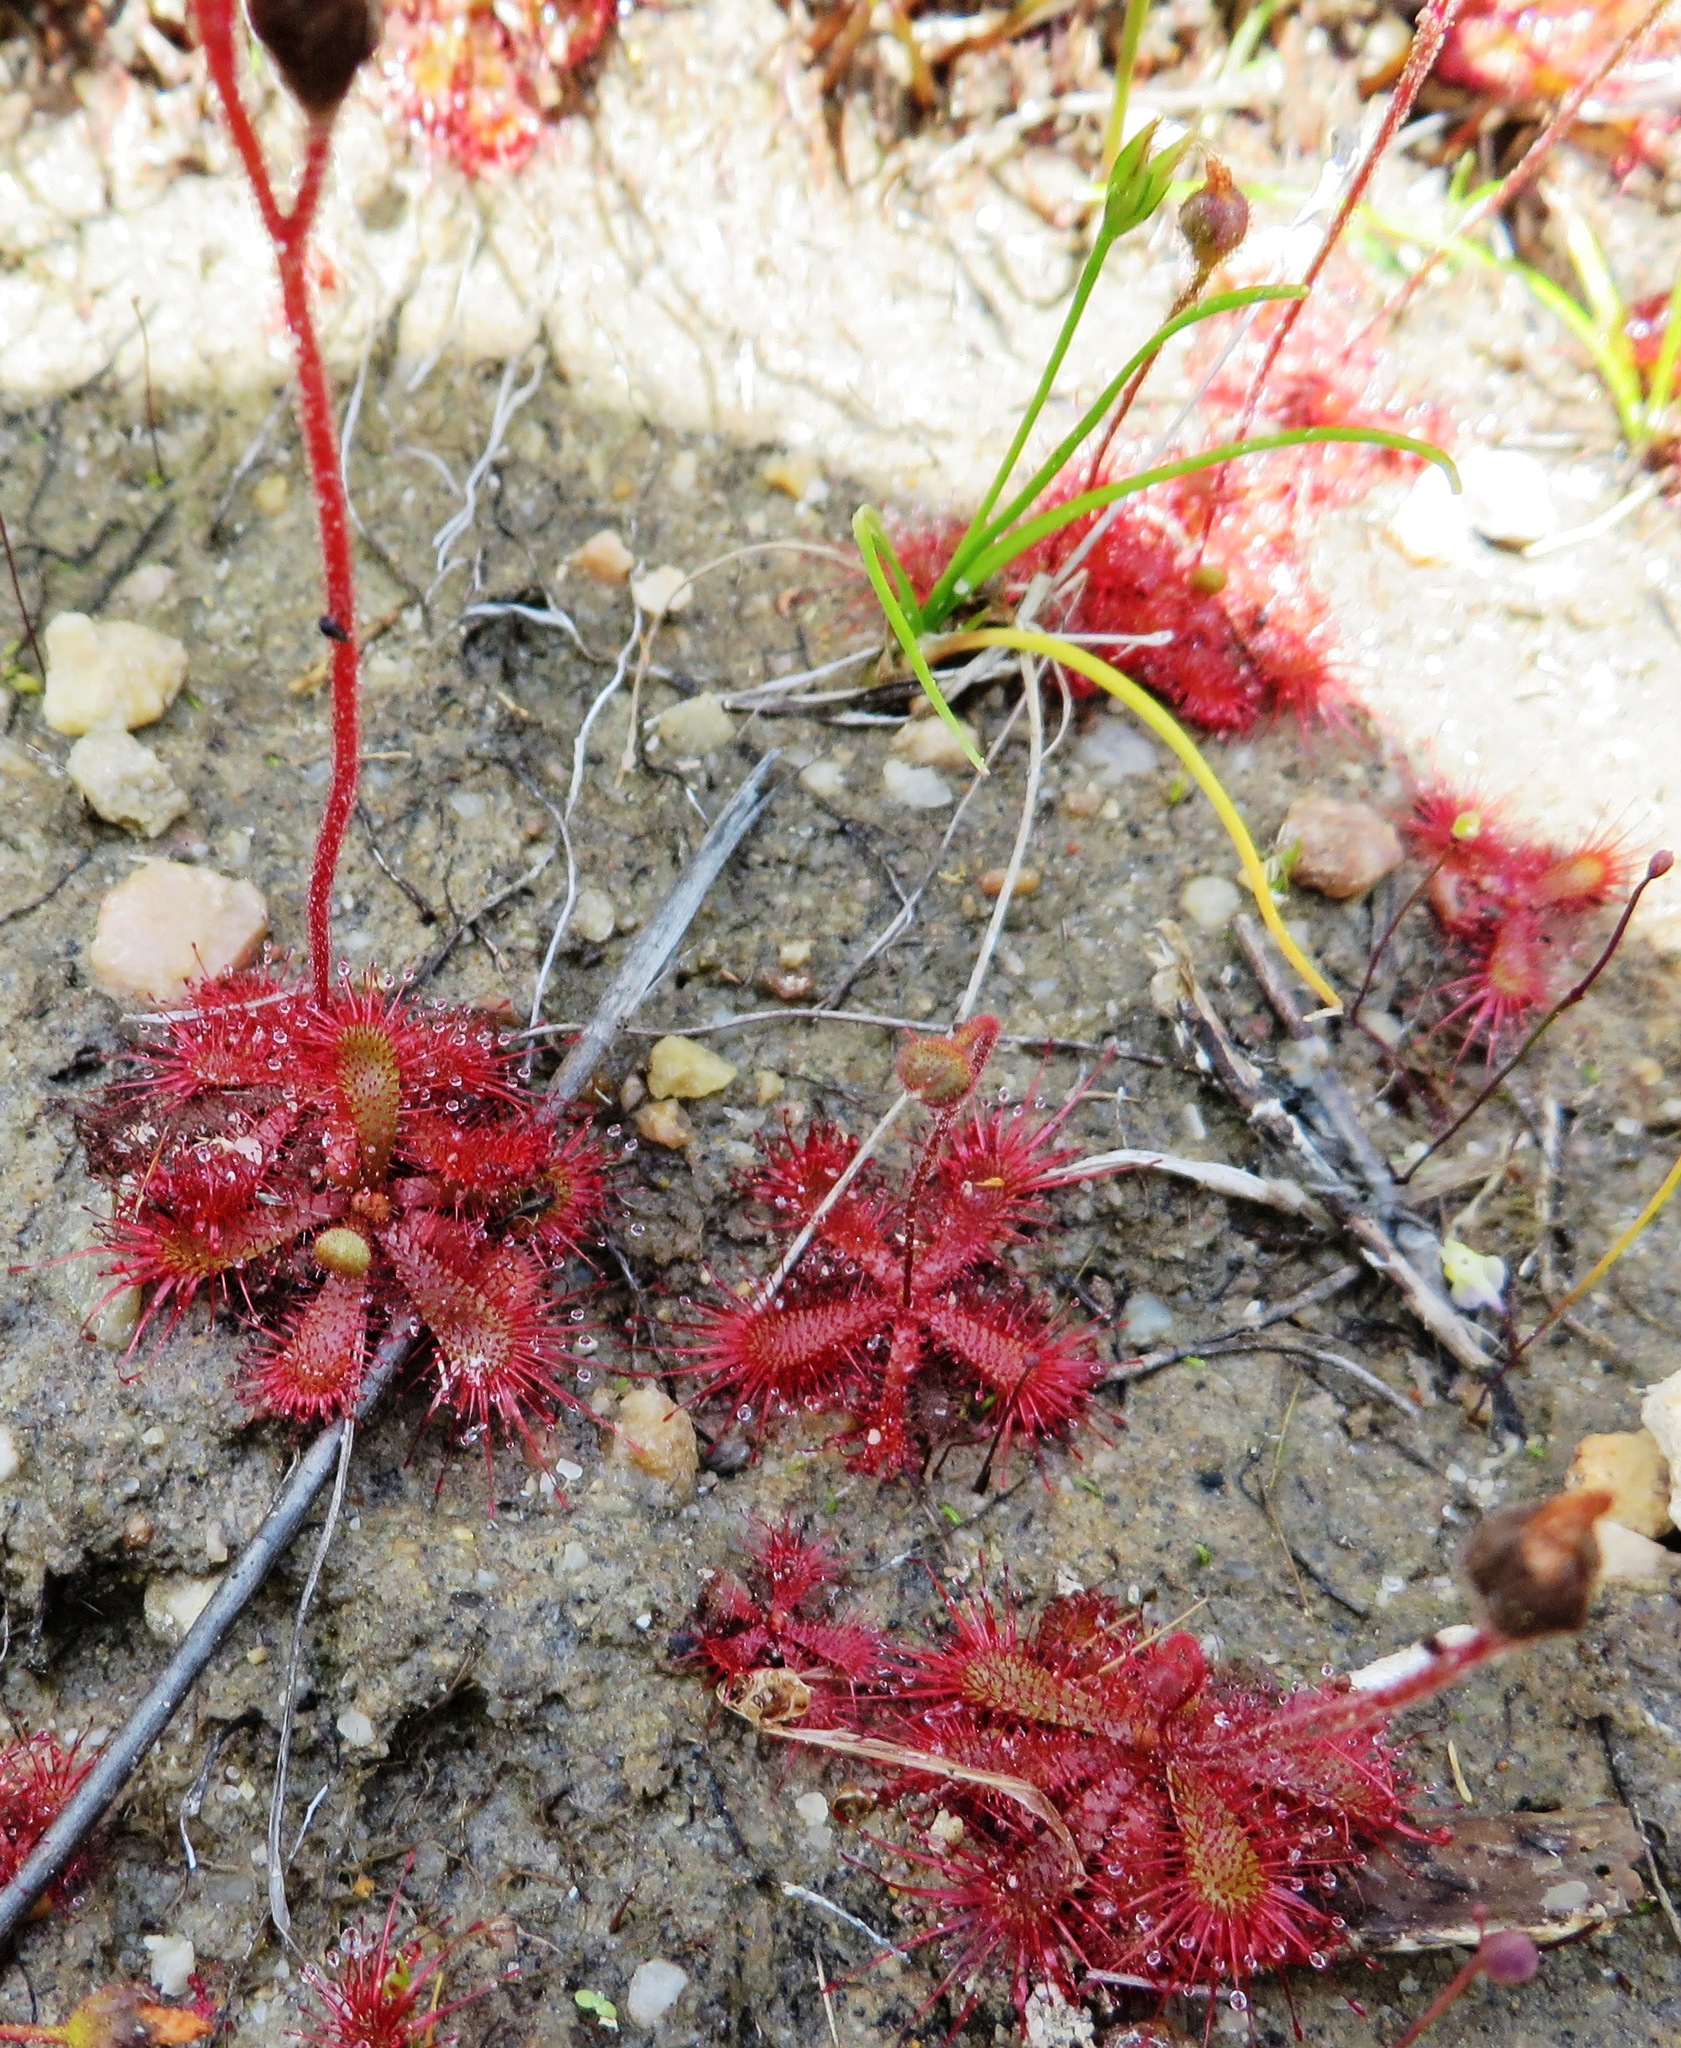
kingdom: Plantae
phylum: Tracheophyta
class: Magnoliopsida
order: Caryophyllales
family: Droseraceae
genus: Drosera
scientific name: Drosera trinervia
